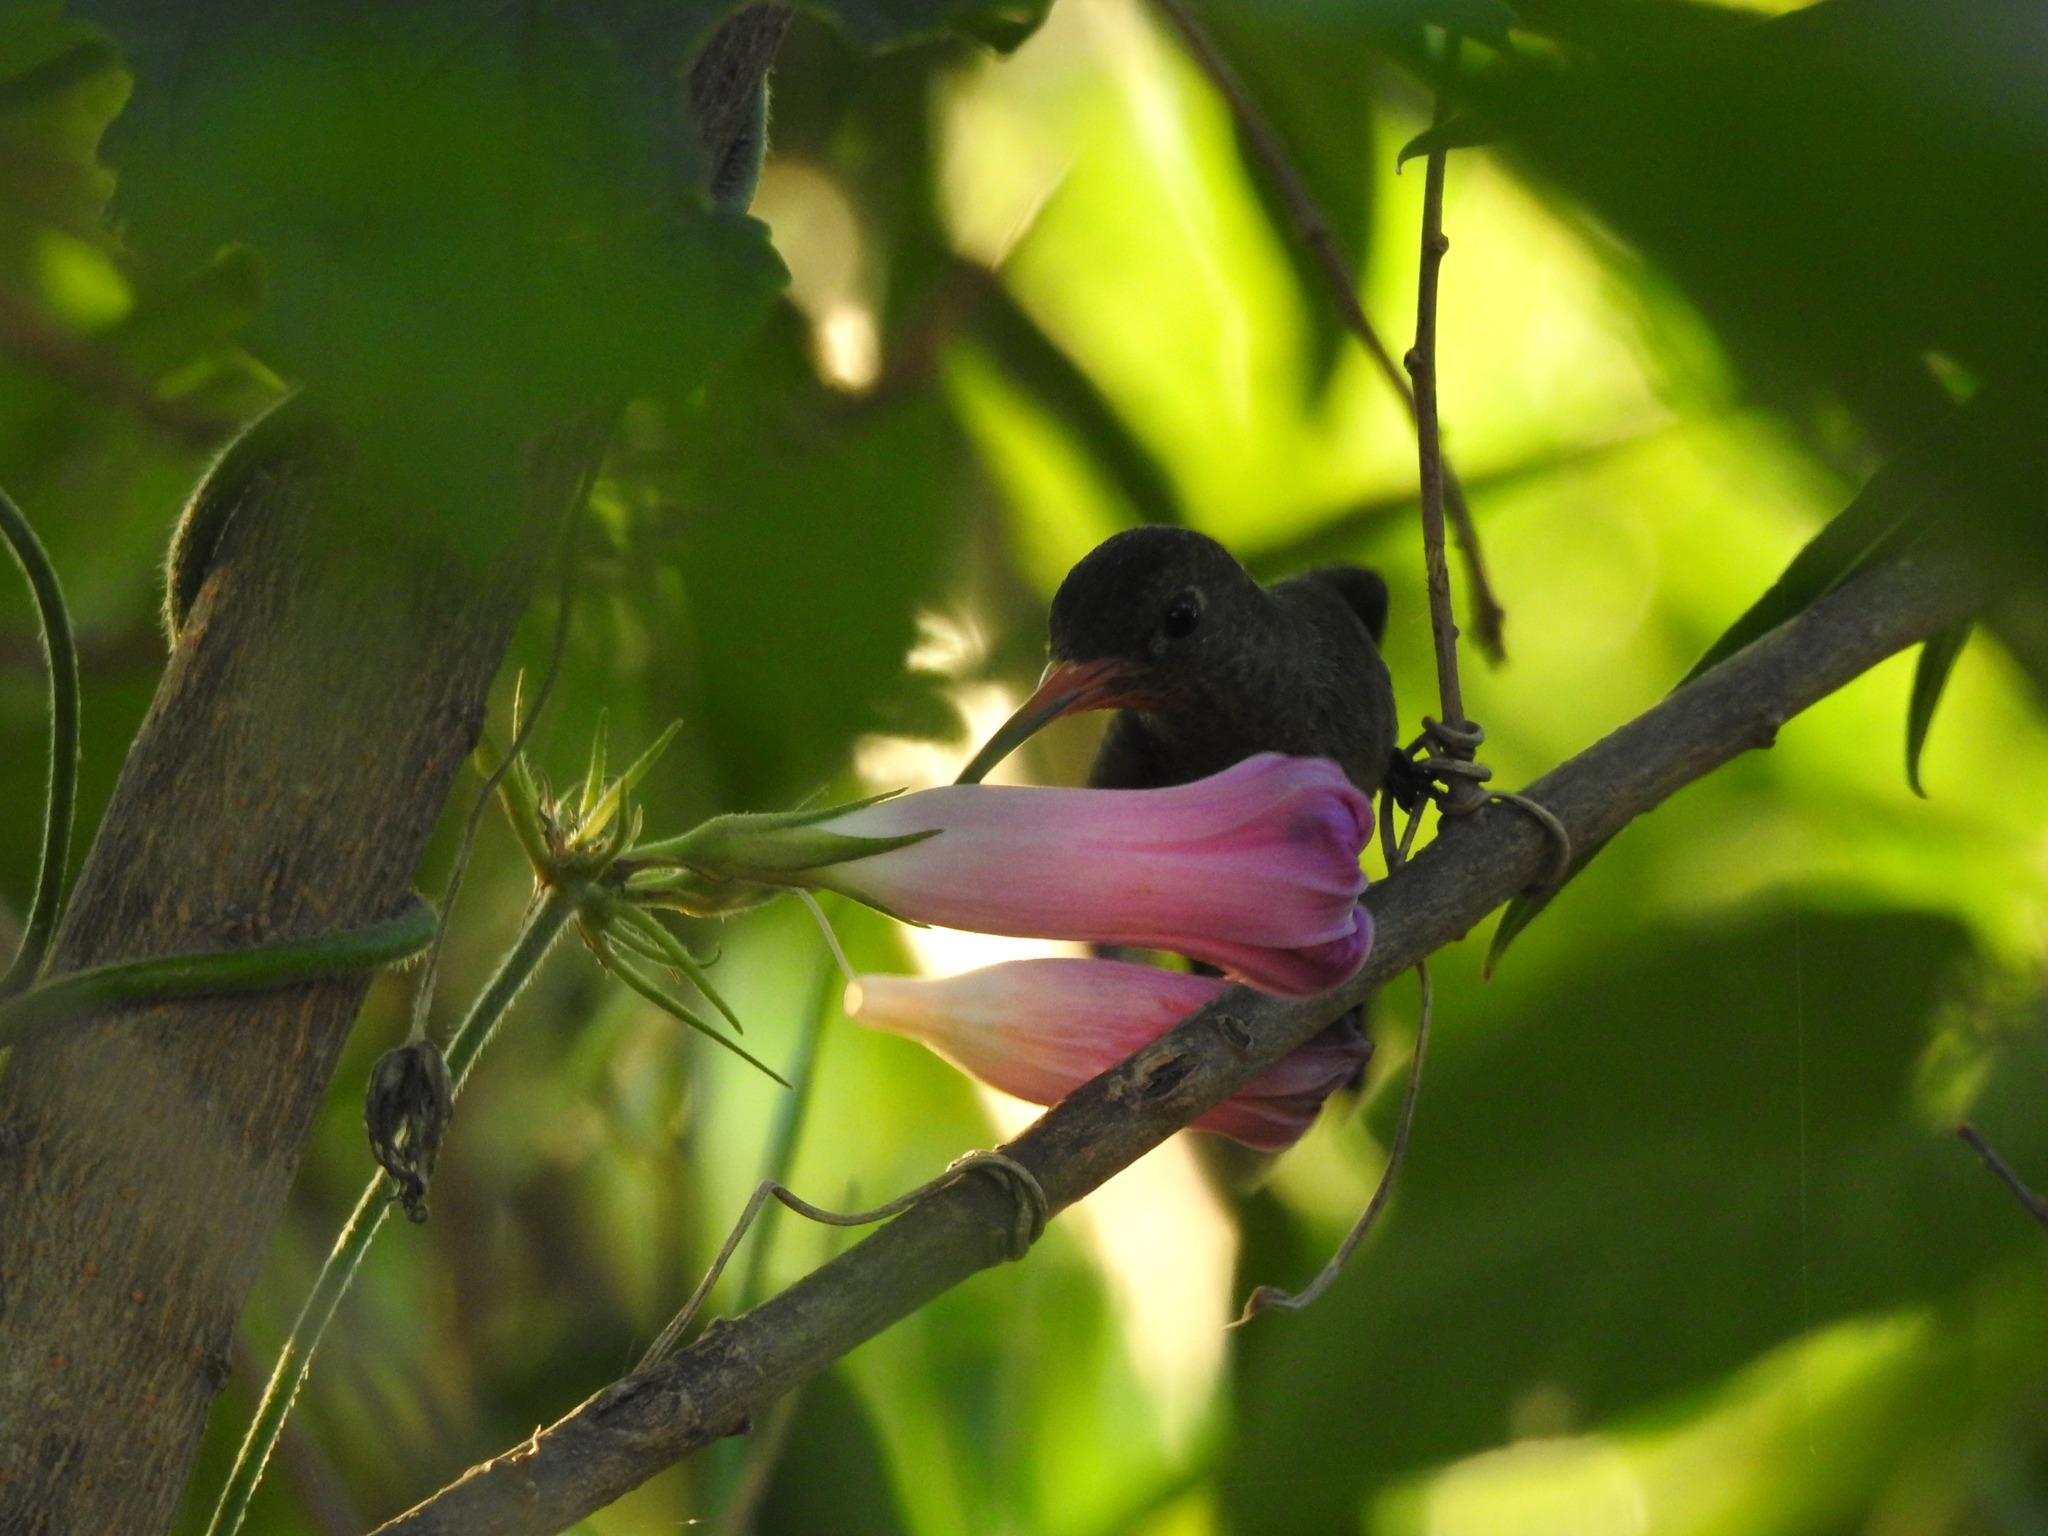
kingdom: Animalia
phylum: Chordata
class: Aves
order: Apodiformes
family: Trochilidae
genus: Hylocharis
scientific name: Hylocharis chrysura
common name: Gilded sapphire
